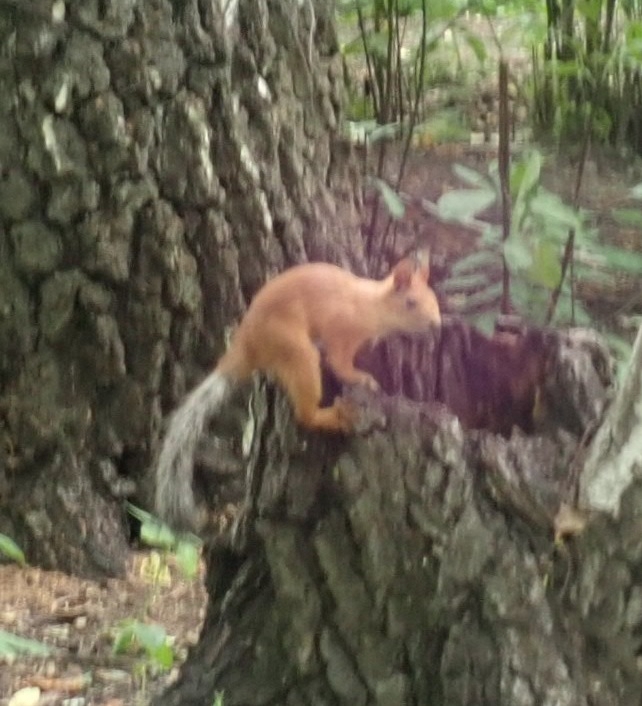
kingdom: Animalia
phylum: Chordata
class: Mammalia
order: Rodentia
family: Sciuridae
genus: Sciurus
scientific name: Sciurus vulgaris
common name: Eurasian red squirrel
